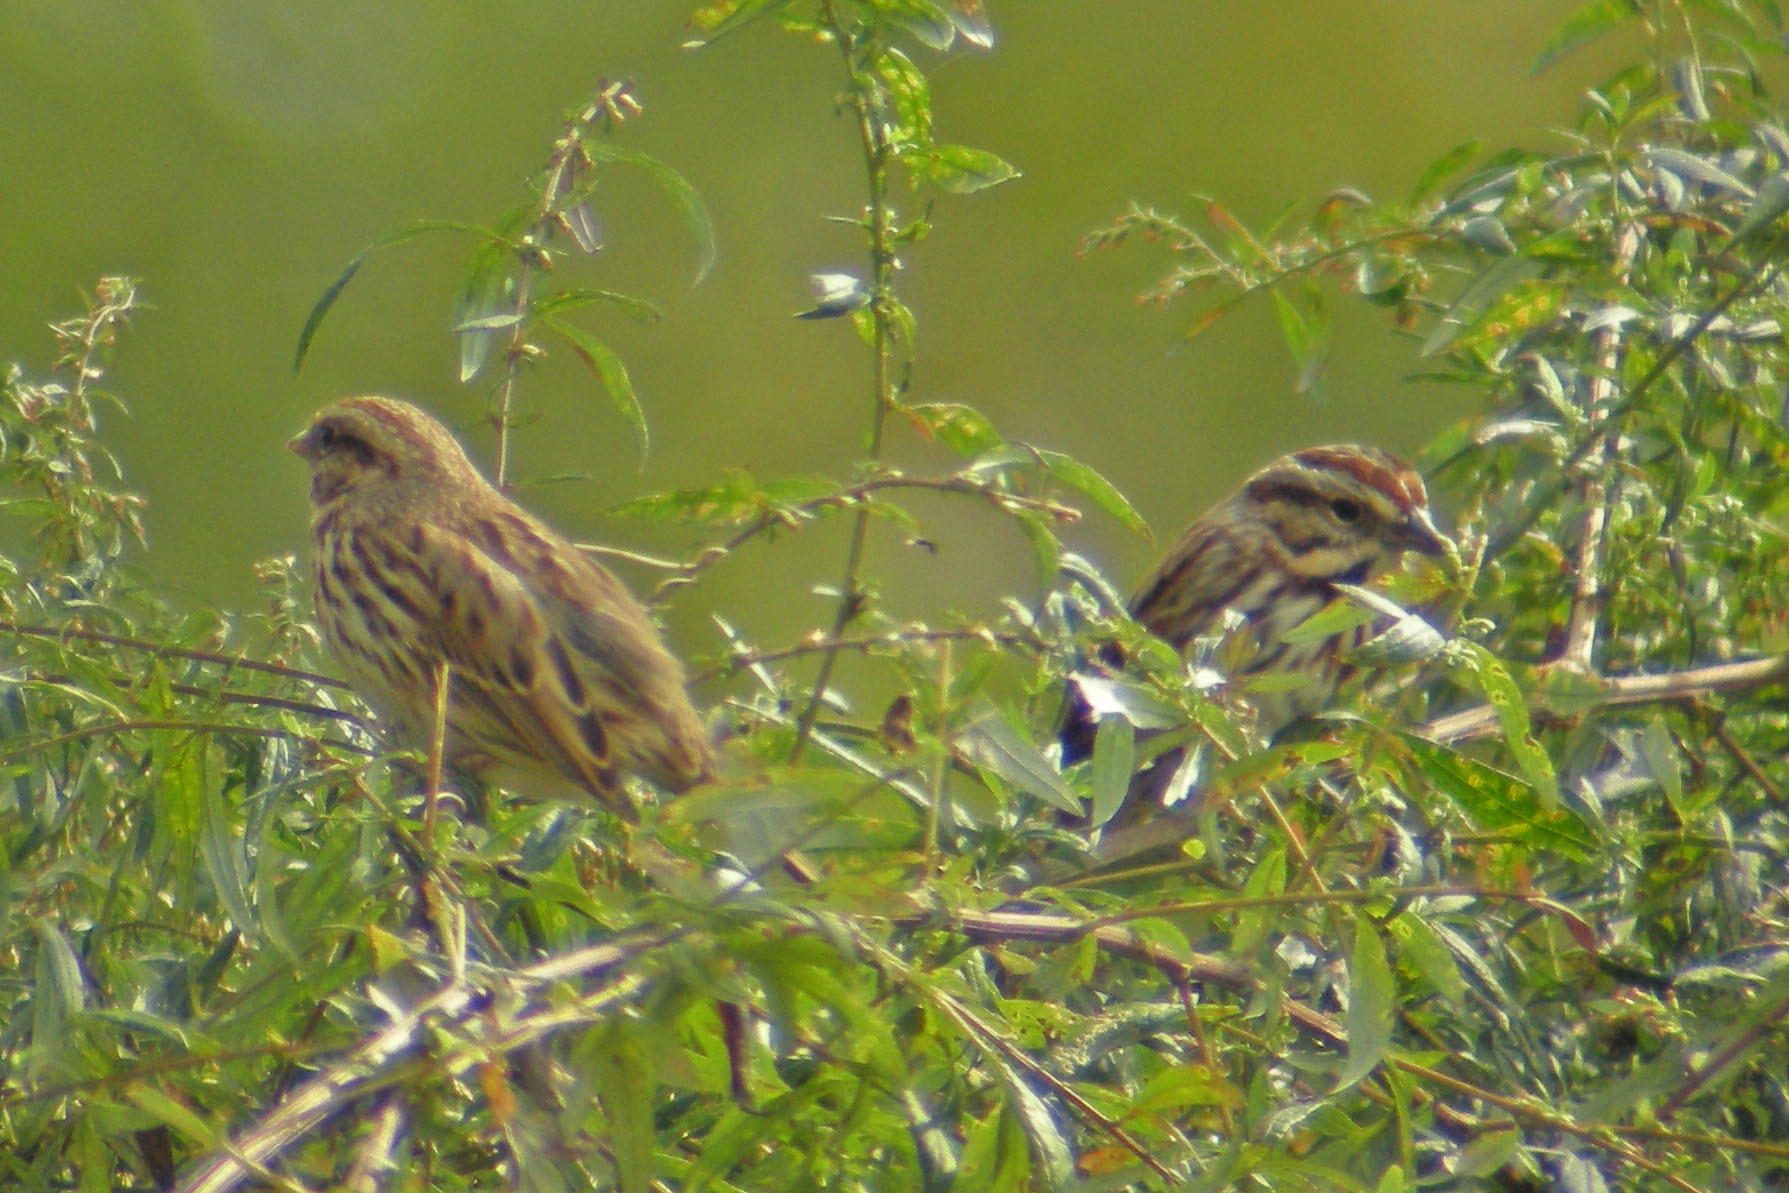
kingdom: Animalia
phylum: Chordata
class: Aves
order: Passeriformes
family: Passerellidae
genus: Melospiza
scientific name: Melospiza melodia
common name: Song sparrow
